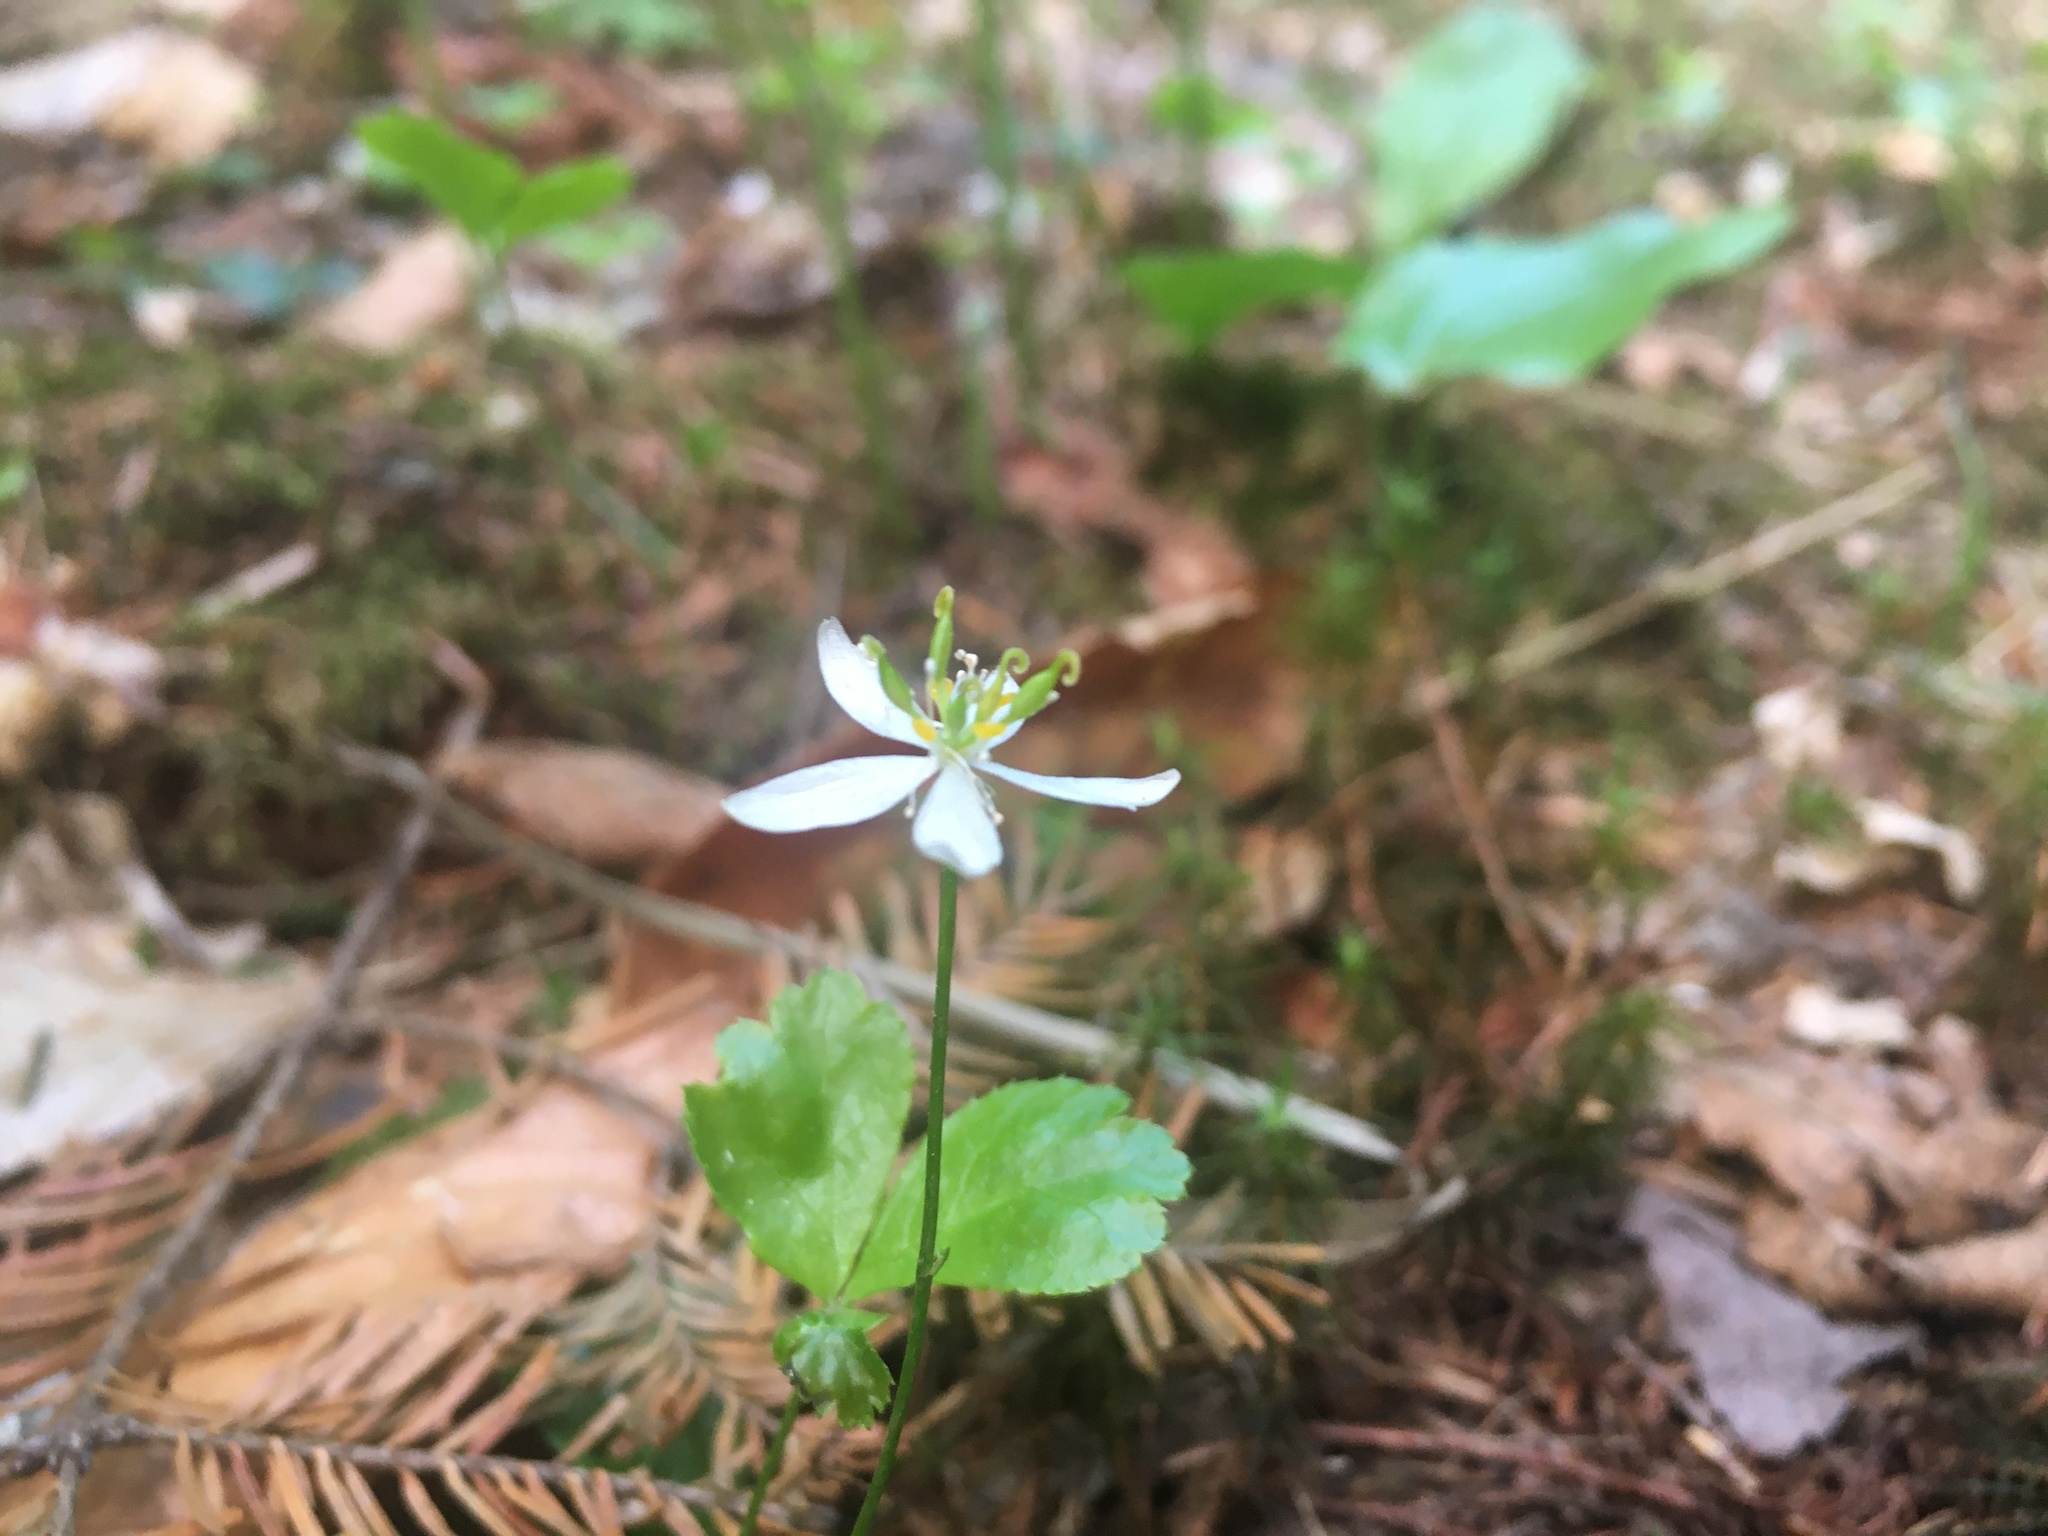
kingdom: Plantae
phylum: Tracheophyta
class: Magnoliopsida
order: Ranunculales
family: Ranunculaceae
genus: Coptis
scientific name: Coptis trifolia
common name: Canker-root
